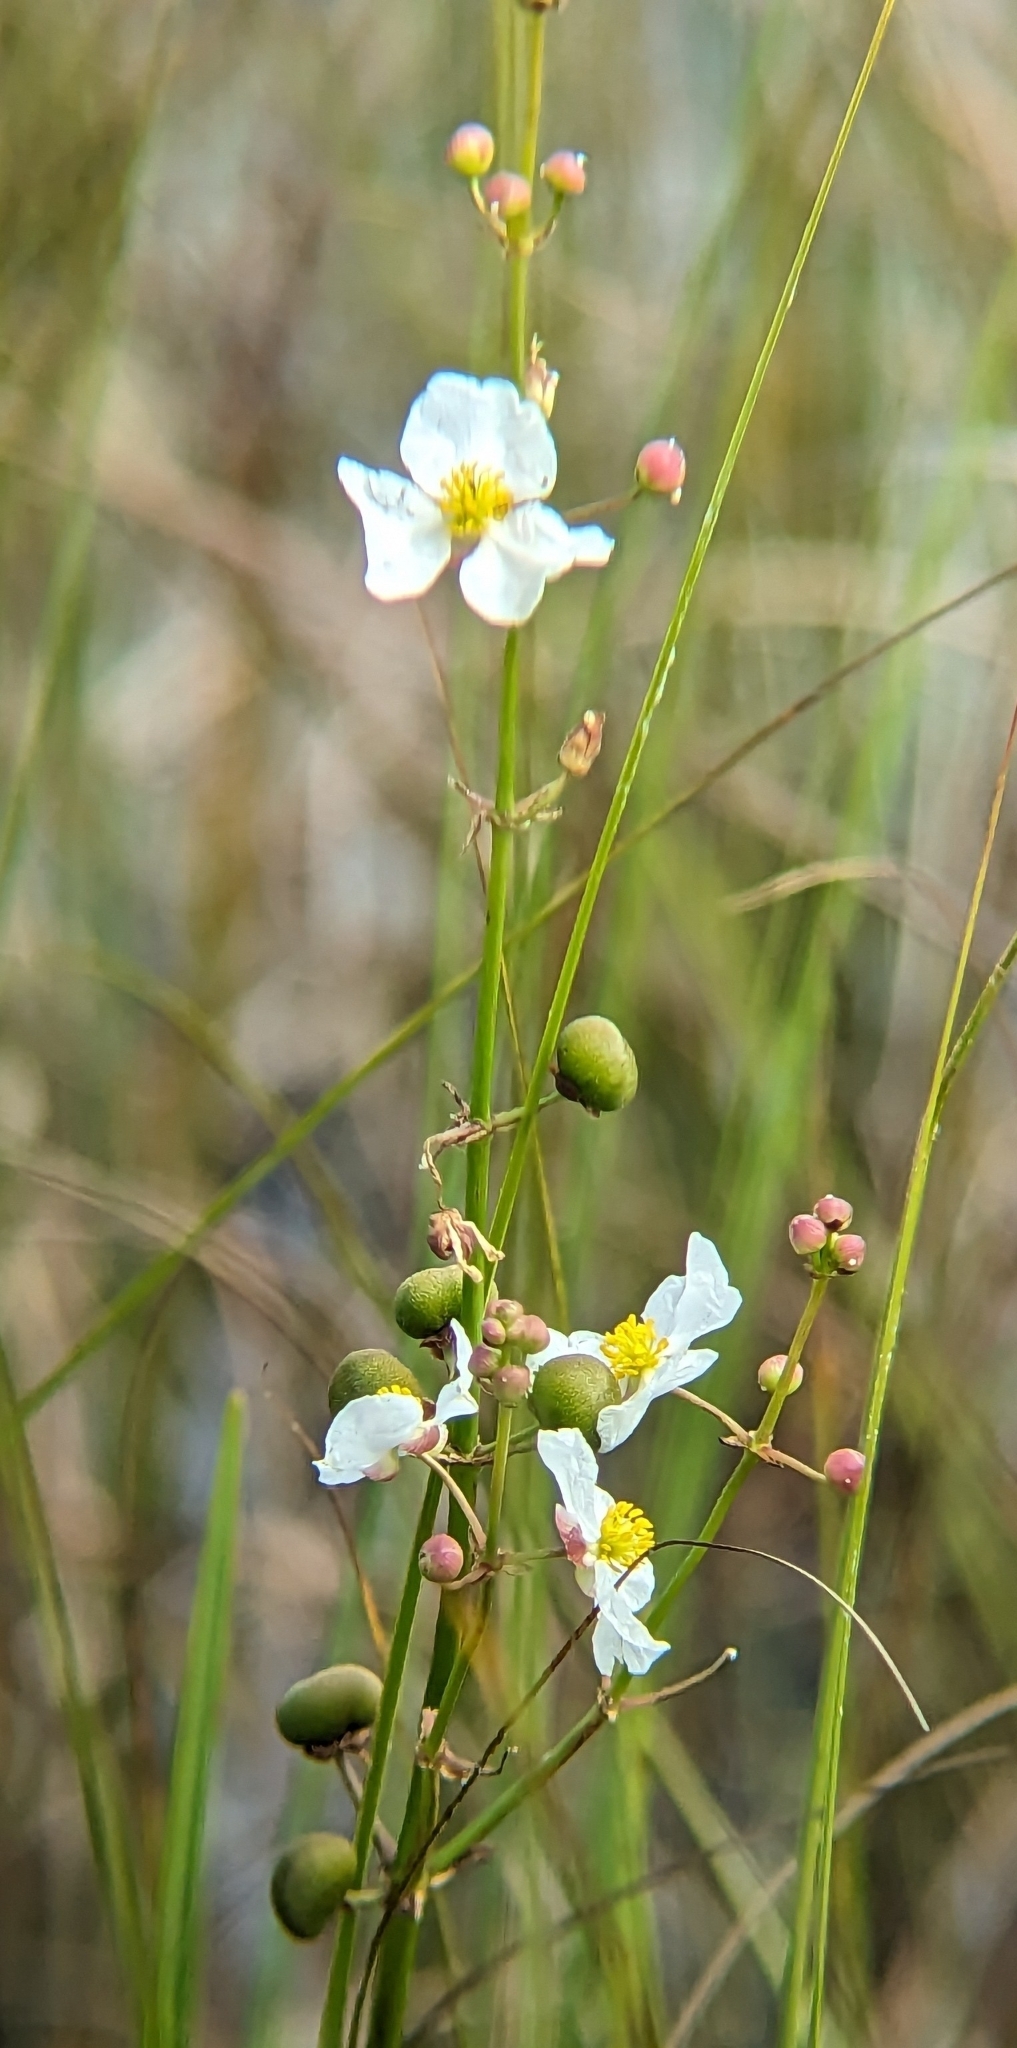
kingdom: Plantae
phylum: Tracheophyta
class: Liliopsida
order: Alismatales
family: Alismataceae
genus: Sagittaria
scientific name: Sagittaria lancifolia
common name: Lance-leaf arrowhead
